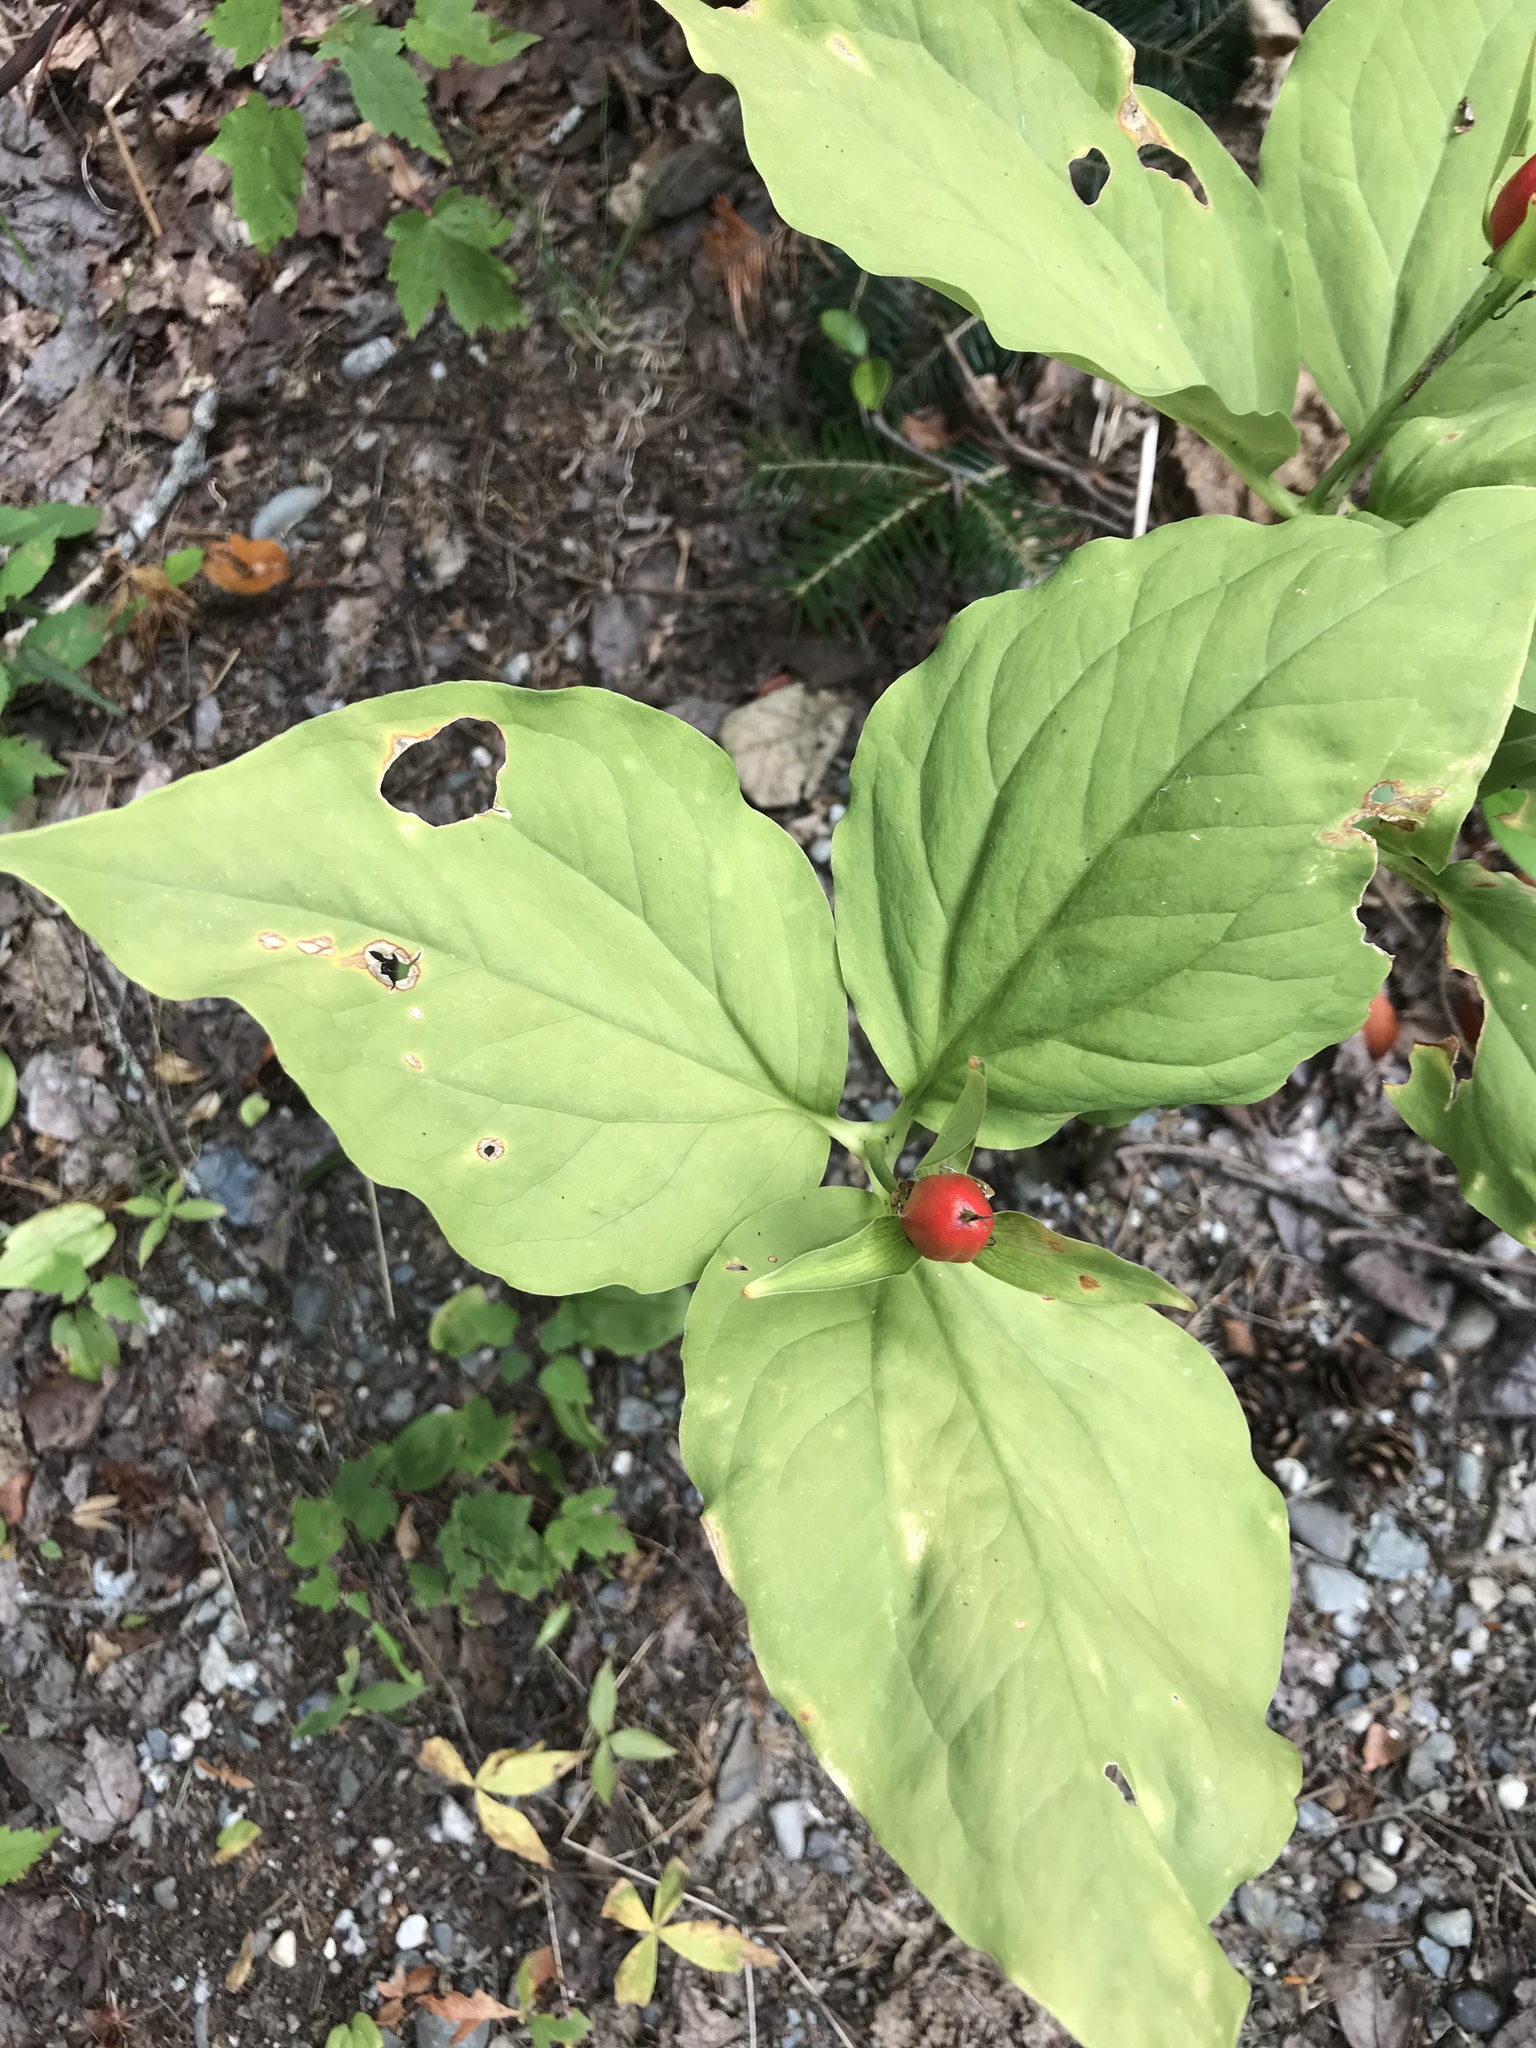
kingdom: Plantae
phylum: Tracheophyta
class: Liliopsida
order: Liliales
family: Melanthiaceae
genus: Trillium
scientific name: Trillium undulatum
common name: Paint trillium
